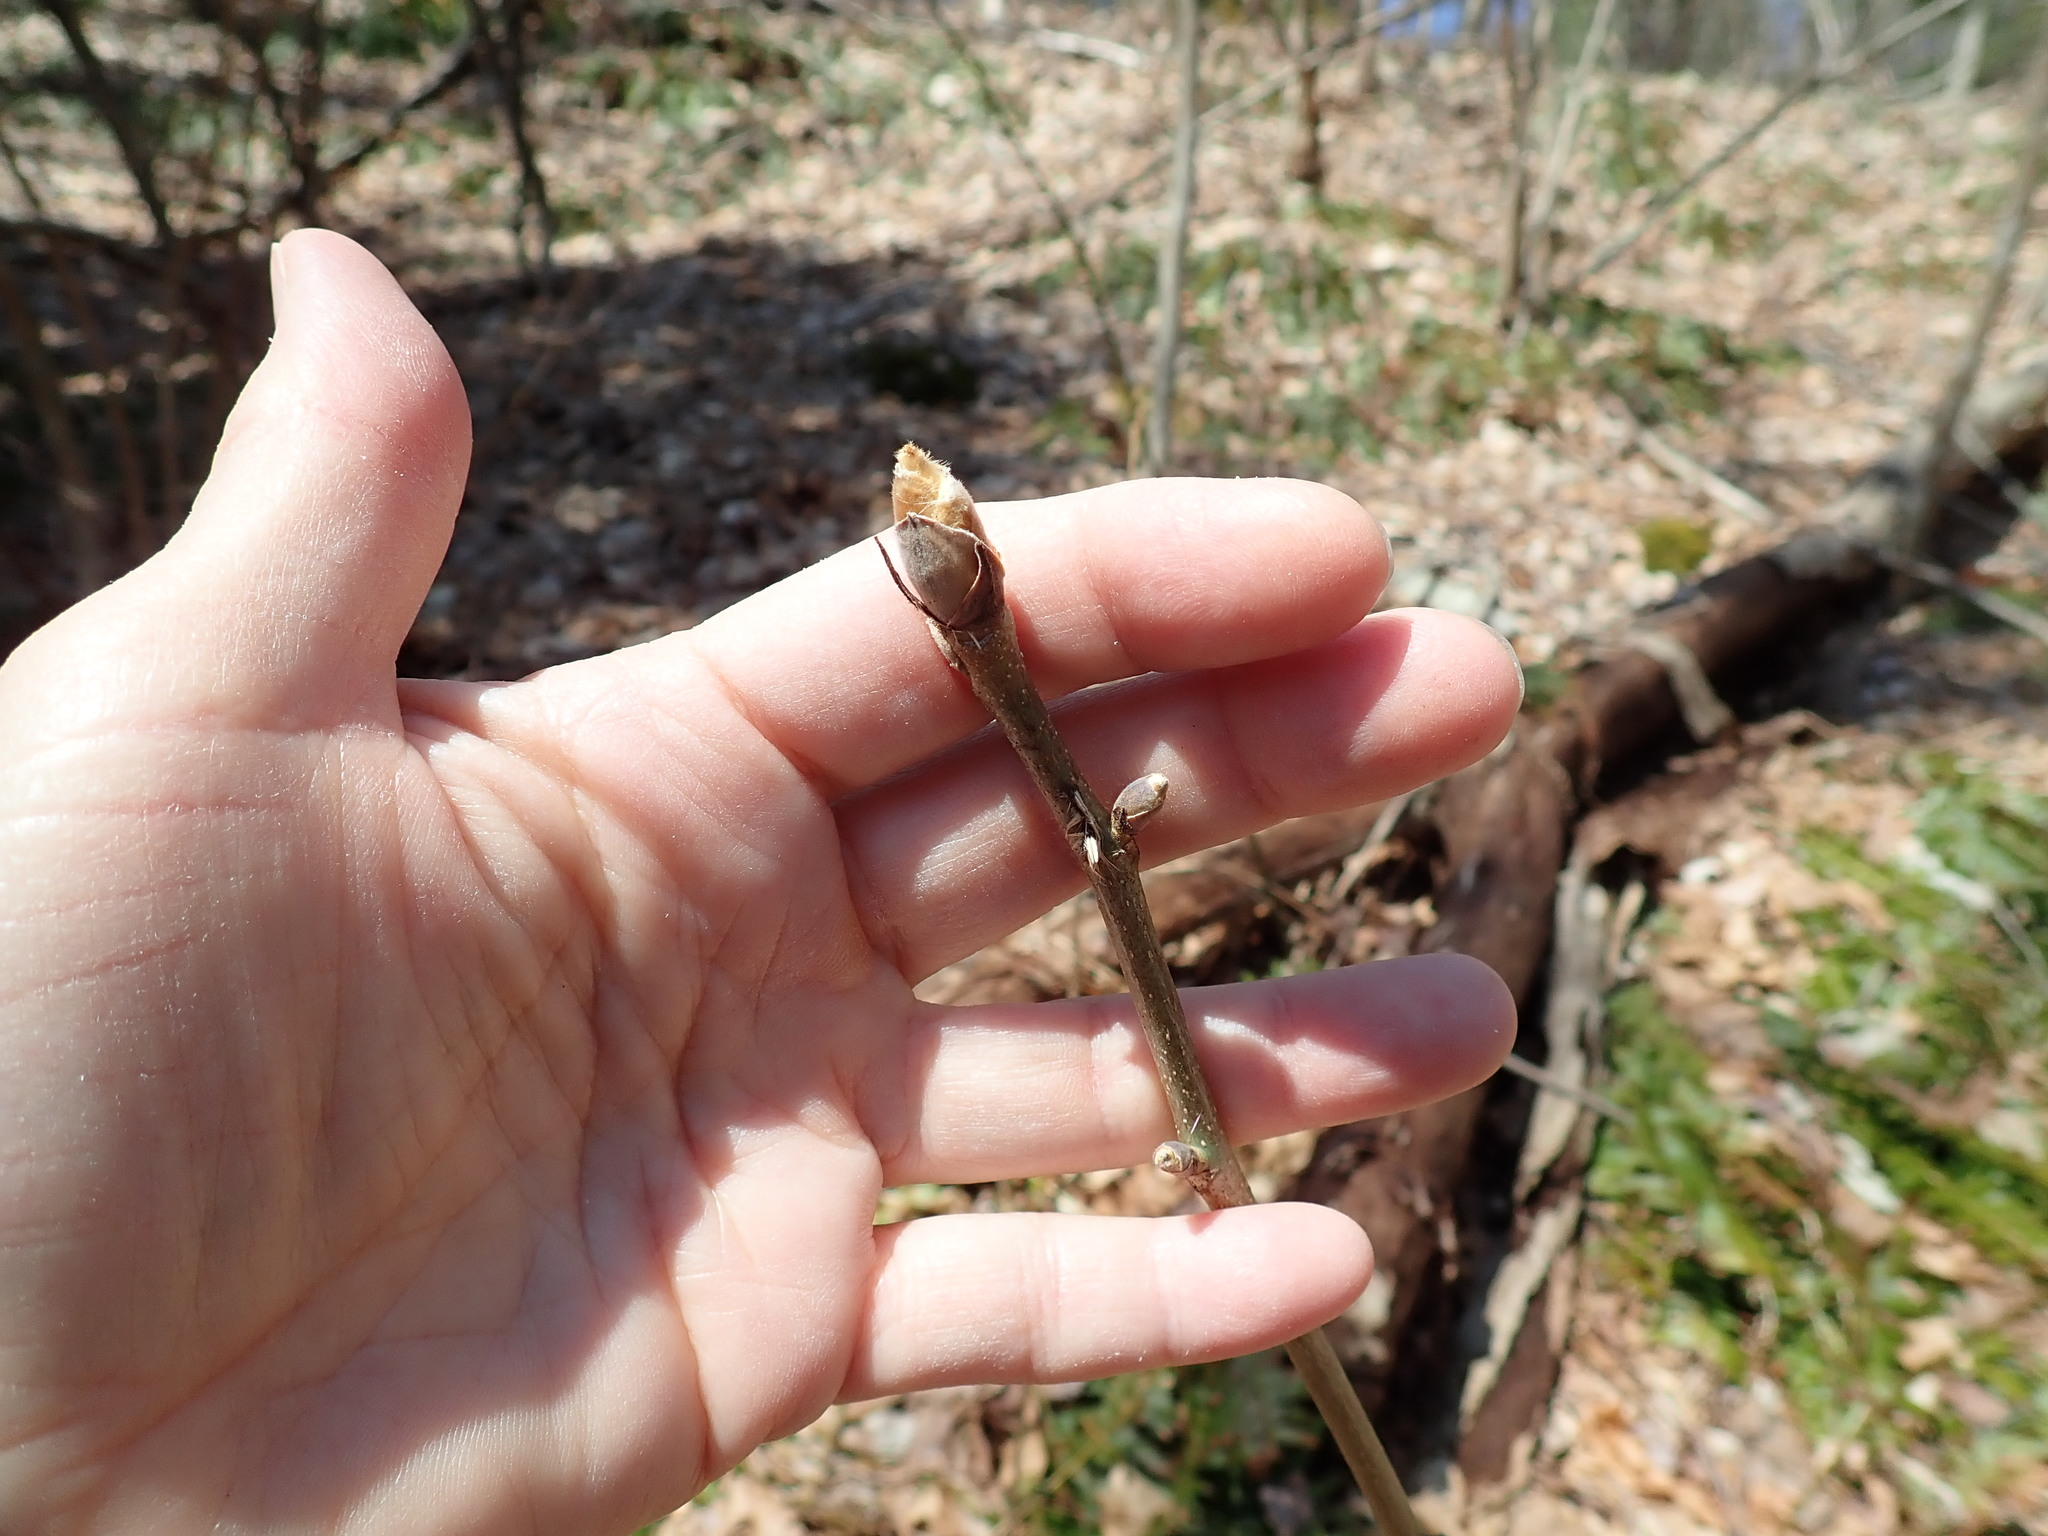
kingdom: Plantae
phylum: Tracheophyta
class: Magnoliopsida
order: Fagales
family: Juglandaceae
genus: Carya
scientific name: Carya
